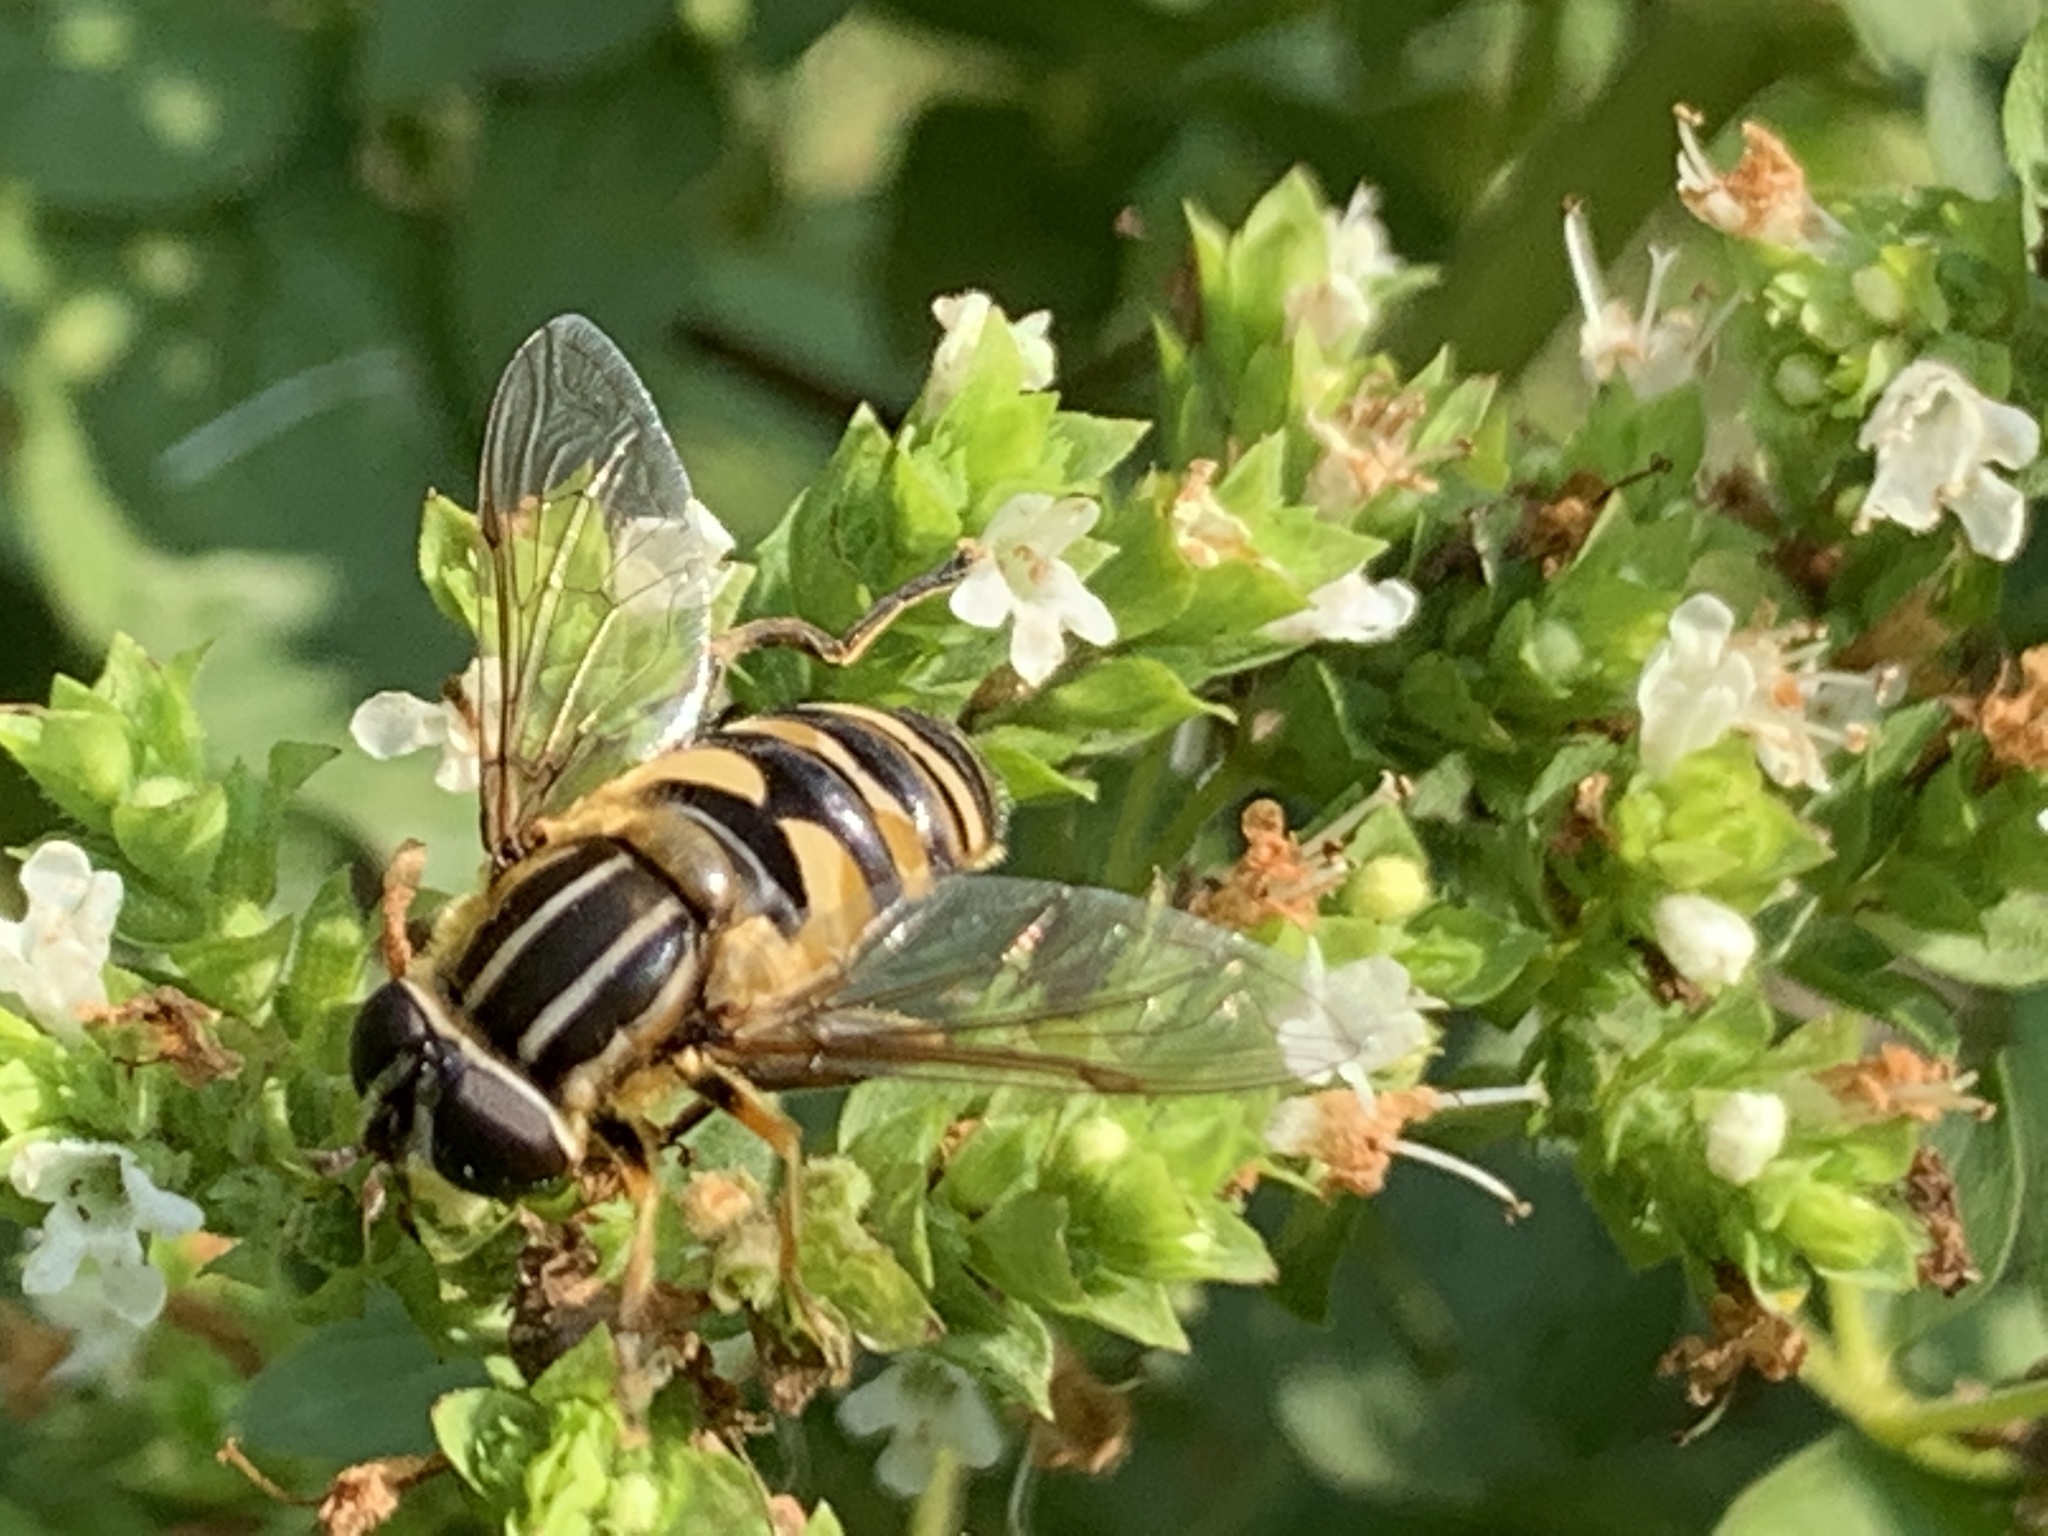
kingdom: Animalia
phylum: Arthropoda
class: Insecta
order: Diptera
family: Syrphidae
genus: Helophilus
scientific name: Helophilus fasciatus
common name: Narrow-headed marsh fly
